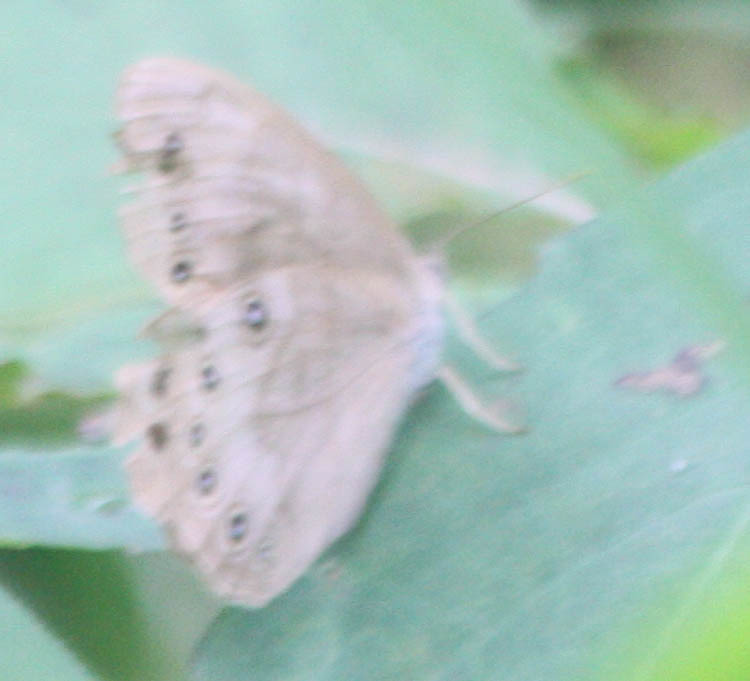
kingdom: Animalia
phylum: Arthropoda
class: Insecta
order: Lepidoptera
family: Nymphalidae
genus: Lethe
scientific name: Lethe
